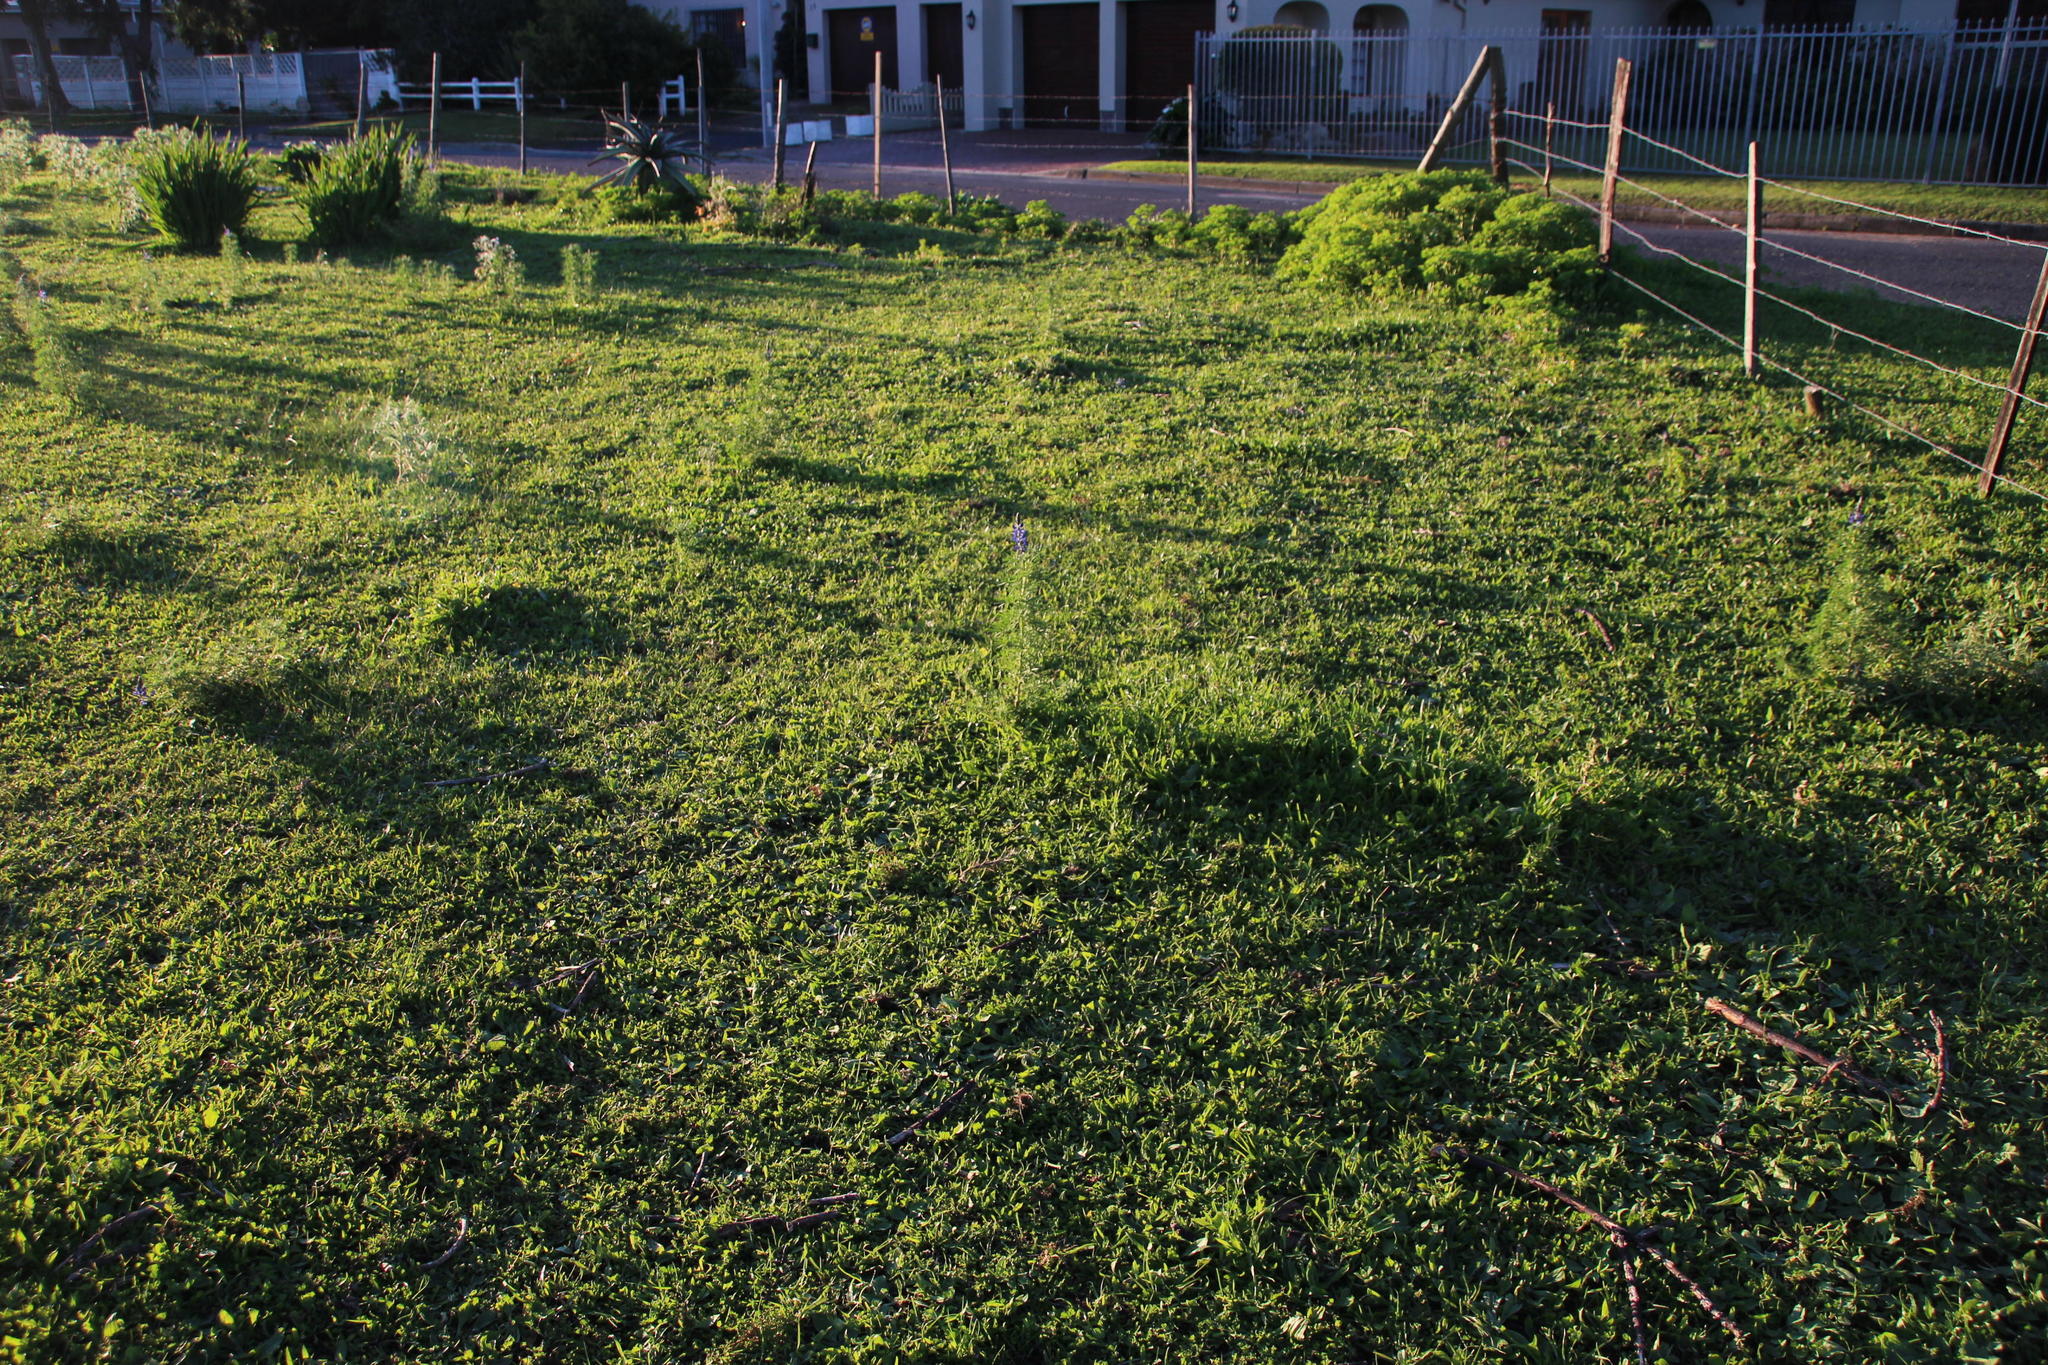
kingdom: Plantae
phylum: Tracheophyta
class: Magnoliopsida
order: Asterales
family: Asteraceae
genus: Hypochaeris
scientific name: Hypochaeris radicata
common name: Flatweed
